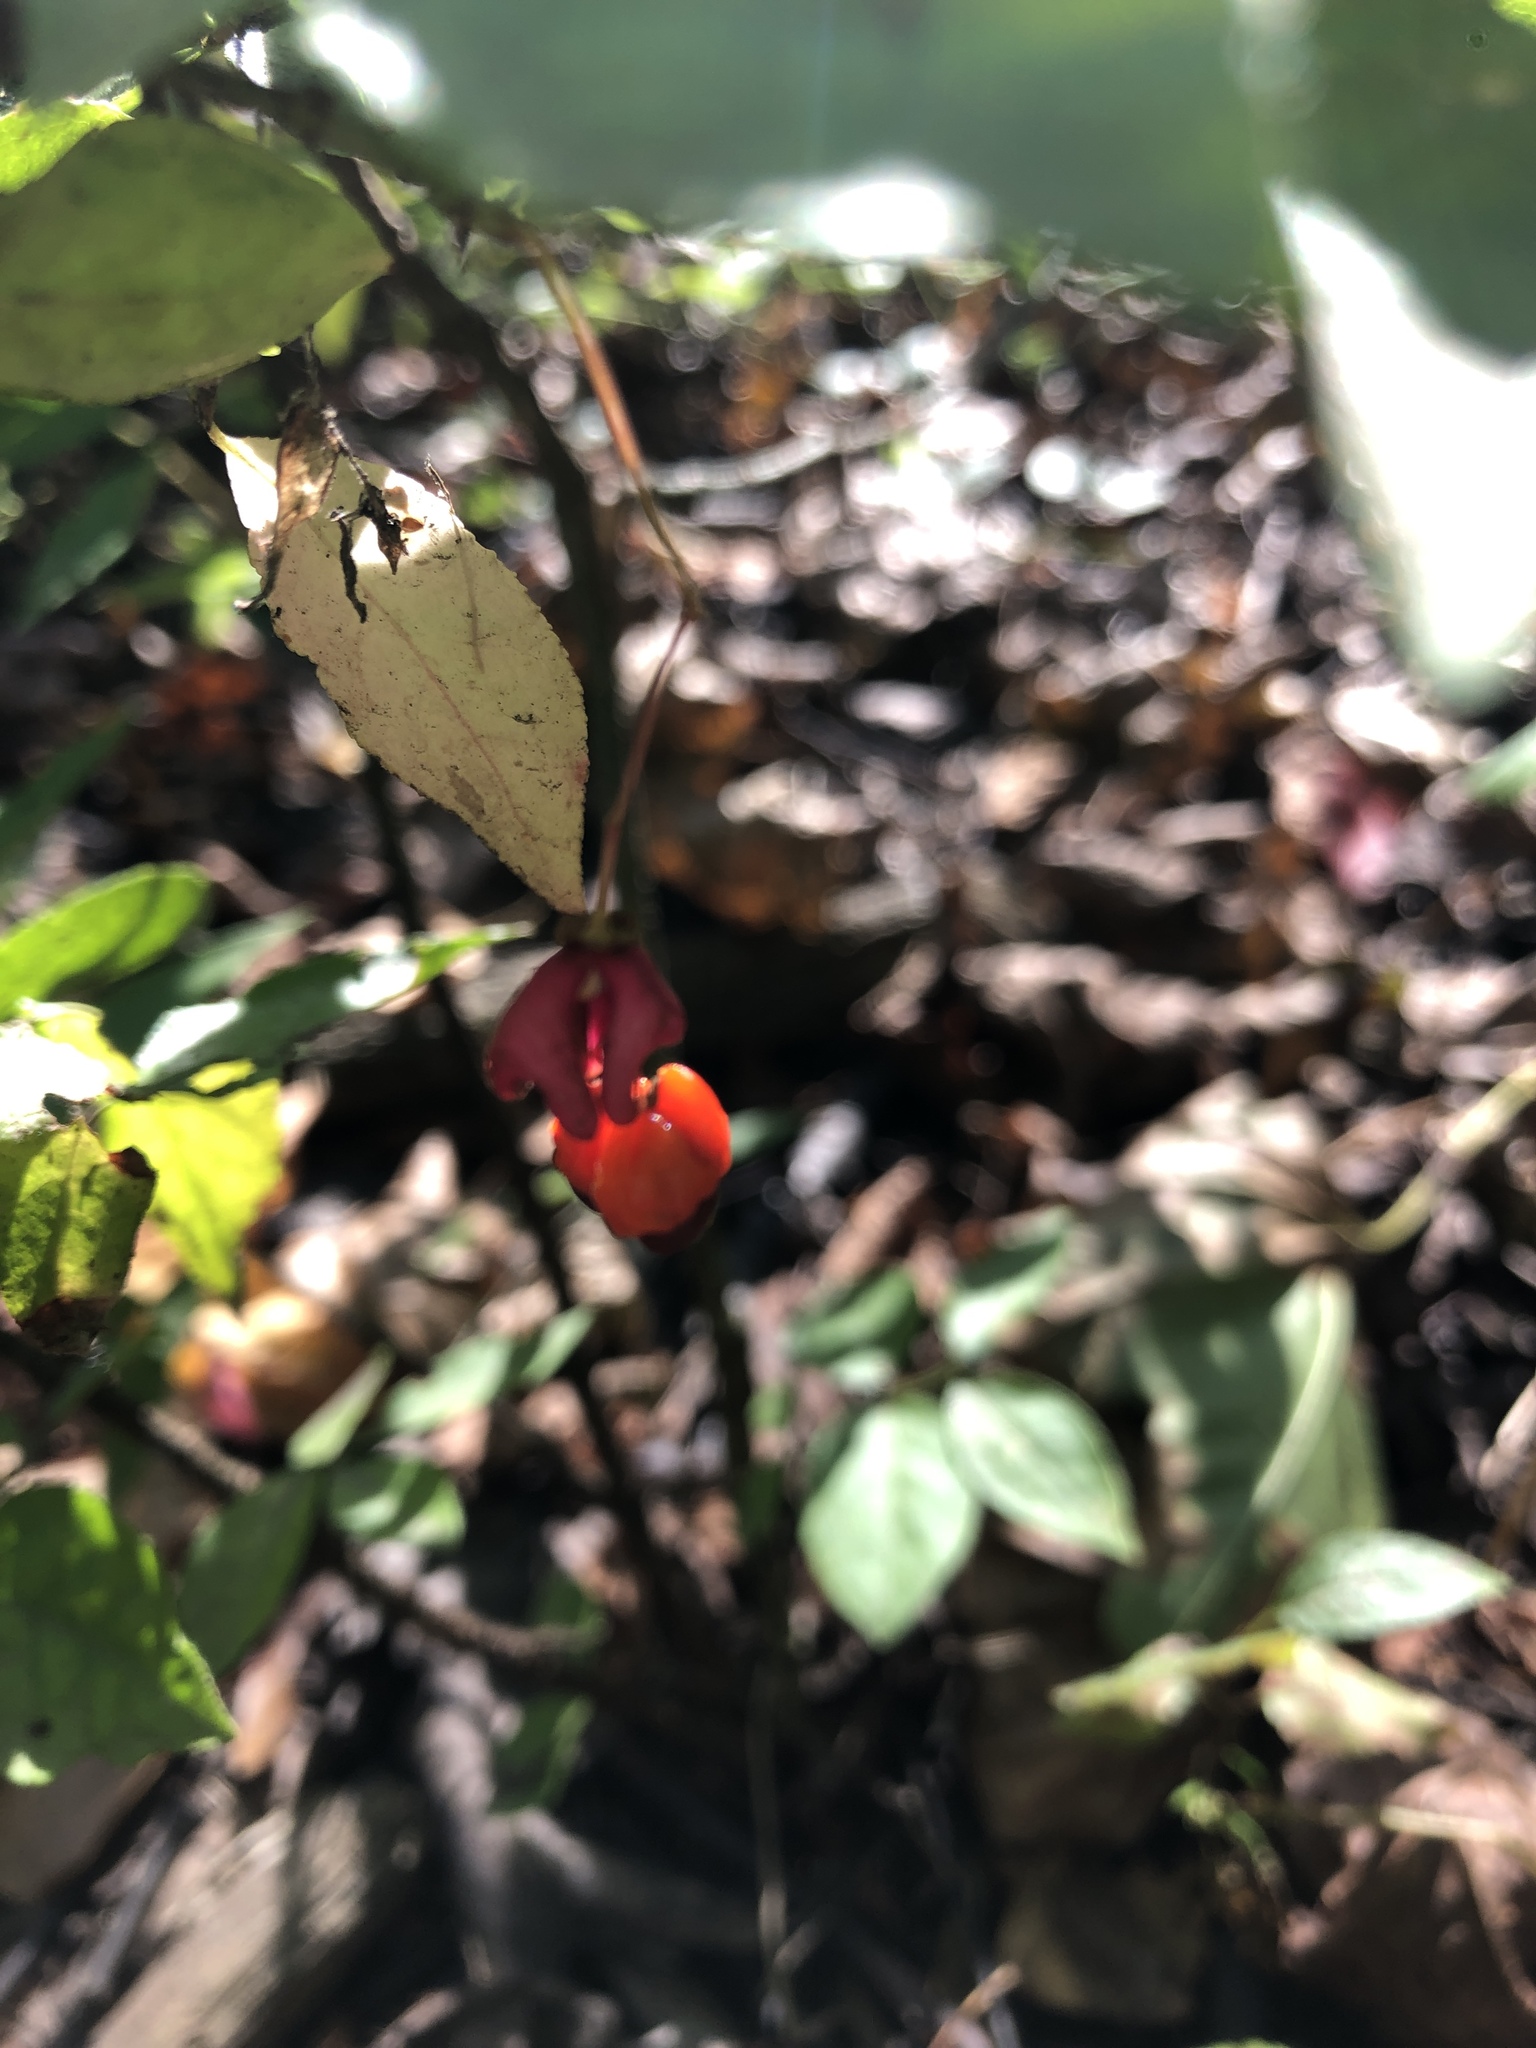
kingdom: Plantae
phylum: Tracheophyta
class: Magnoliopsida
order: Celastrales
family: Celastraceae
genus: Euonymus
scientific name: Euonymus verrucosus
